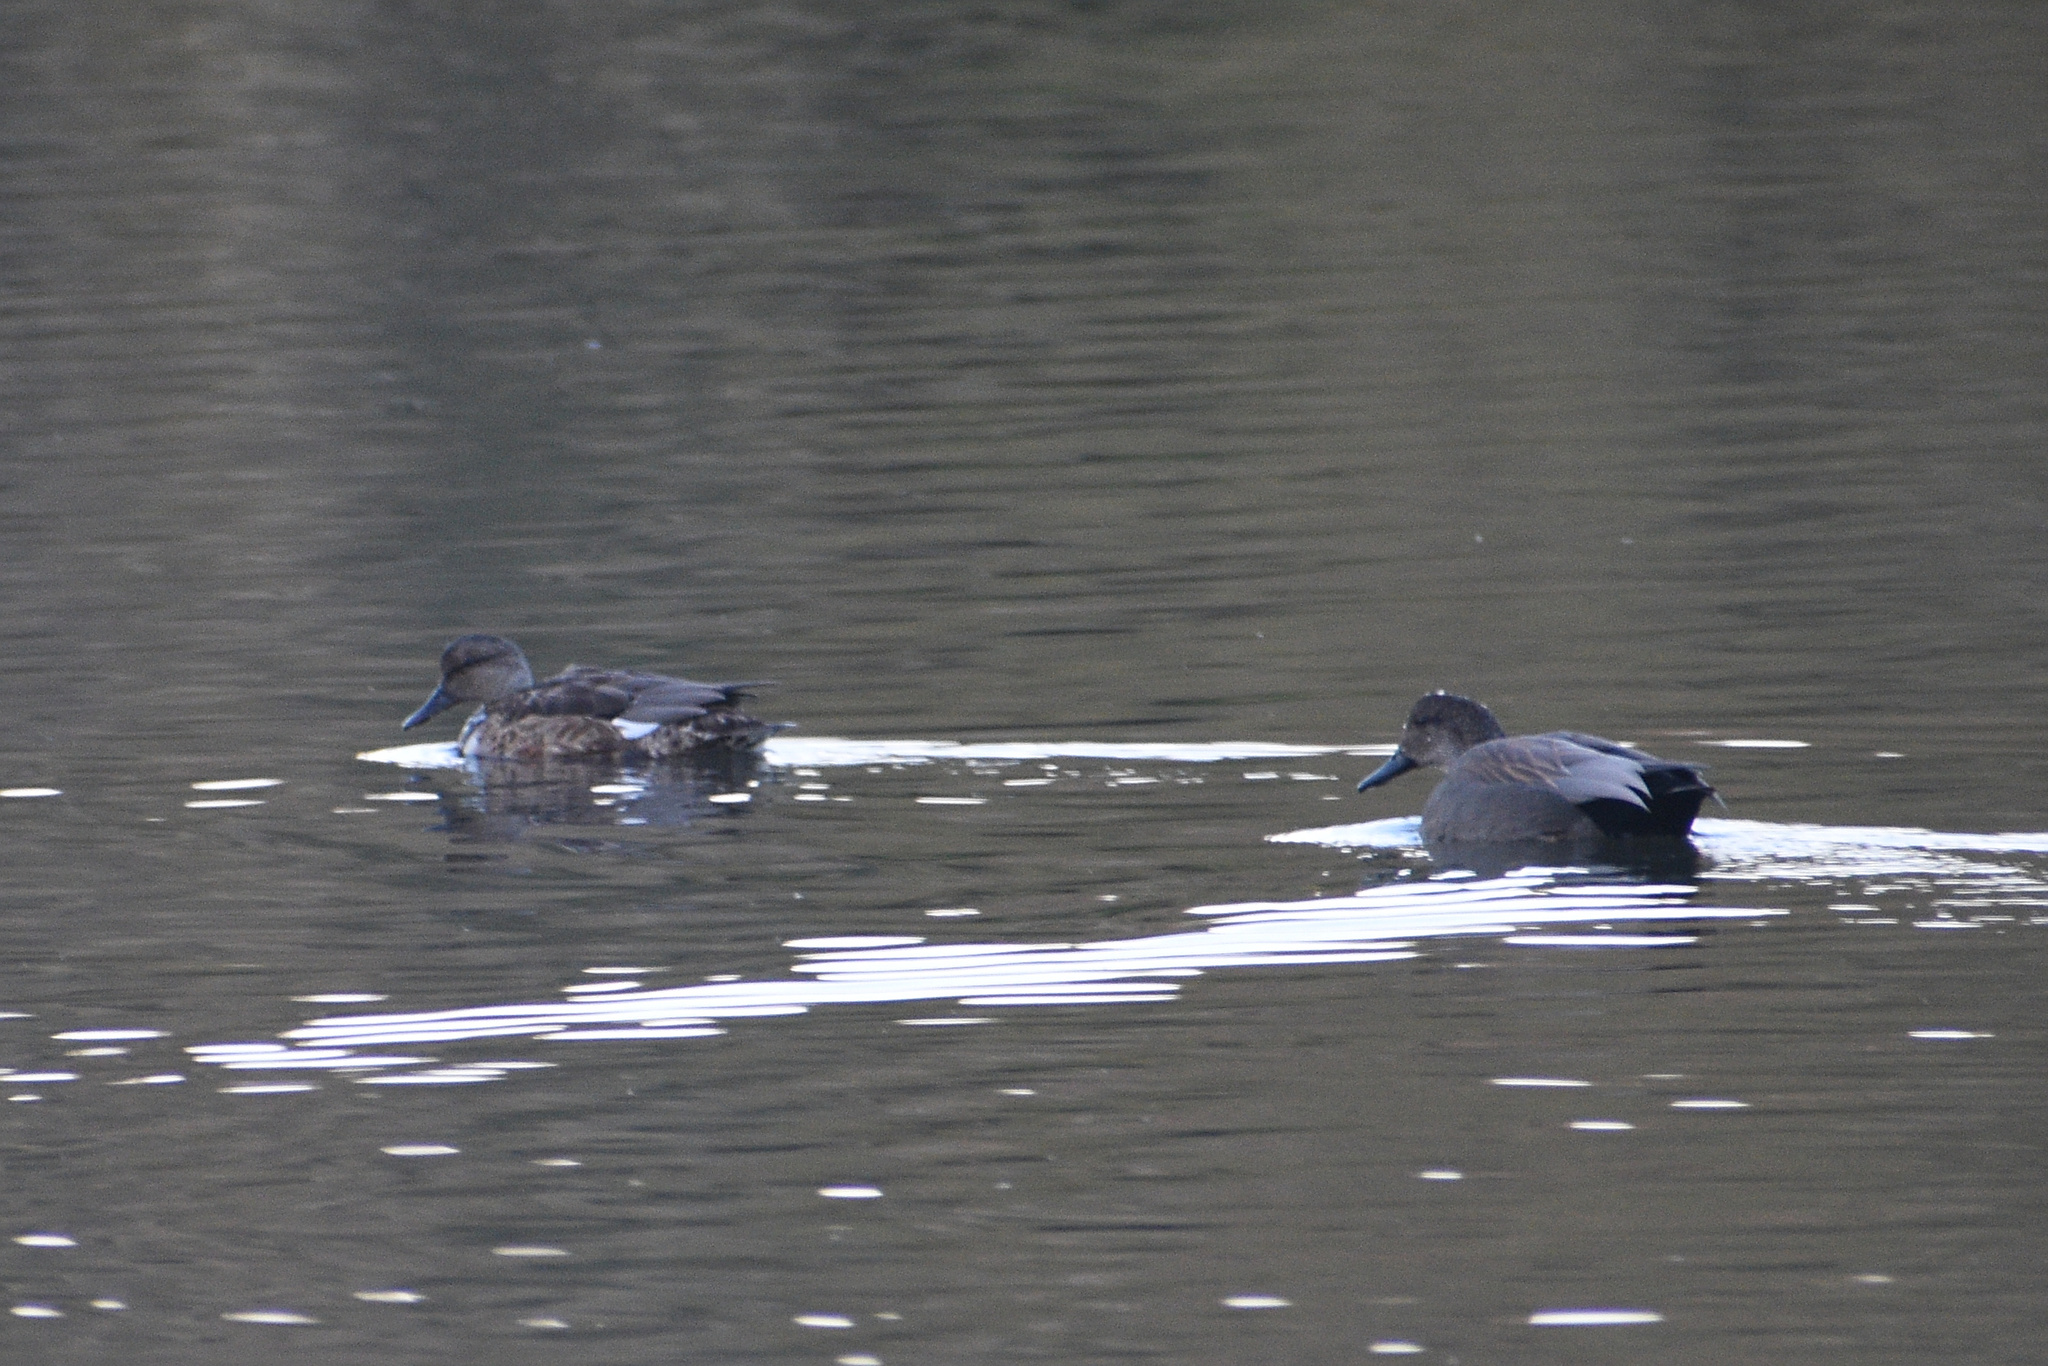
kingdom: Animalia
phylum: Chordata
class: Aves
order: Anseriformes
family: Anatidae
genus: Mareca
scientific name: Mareca strepera
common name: Gadwall
